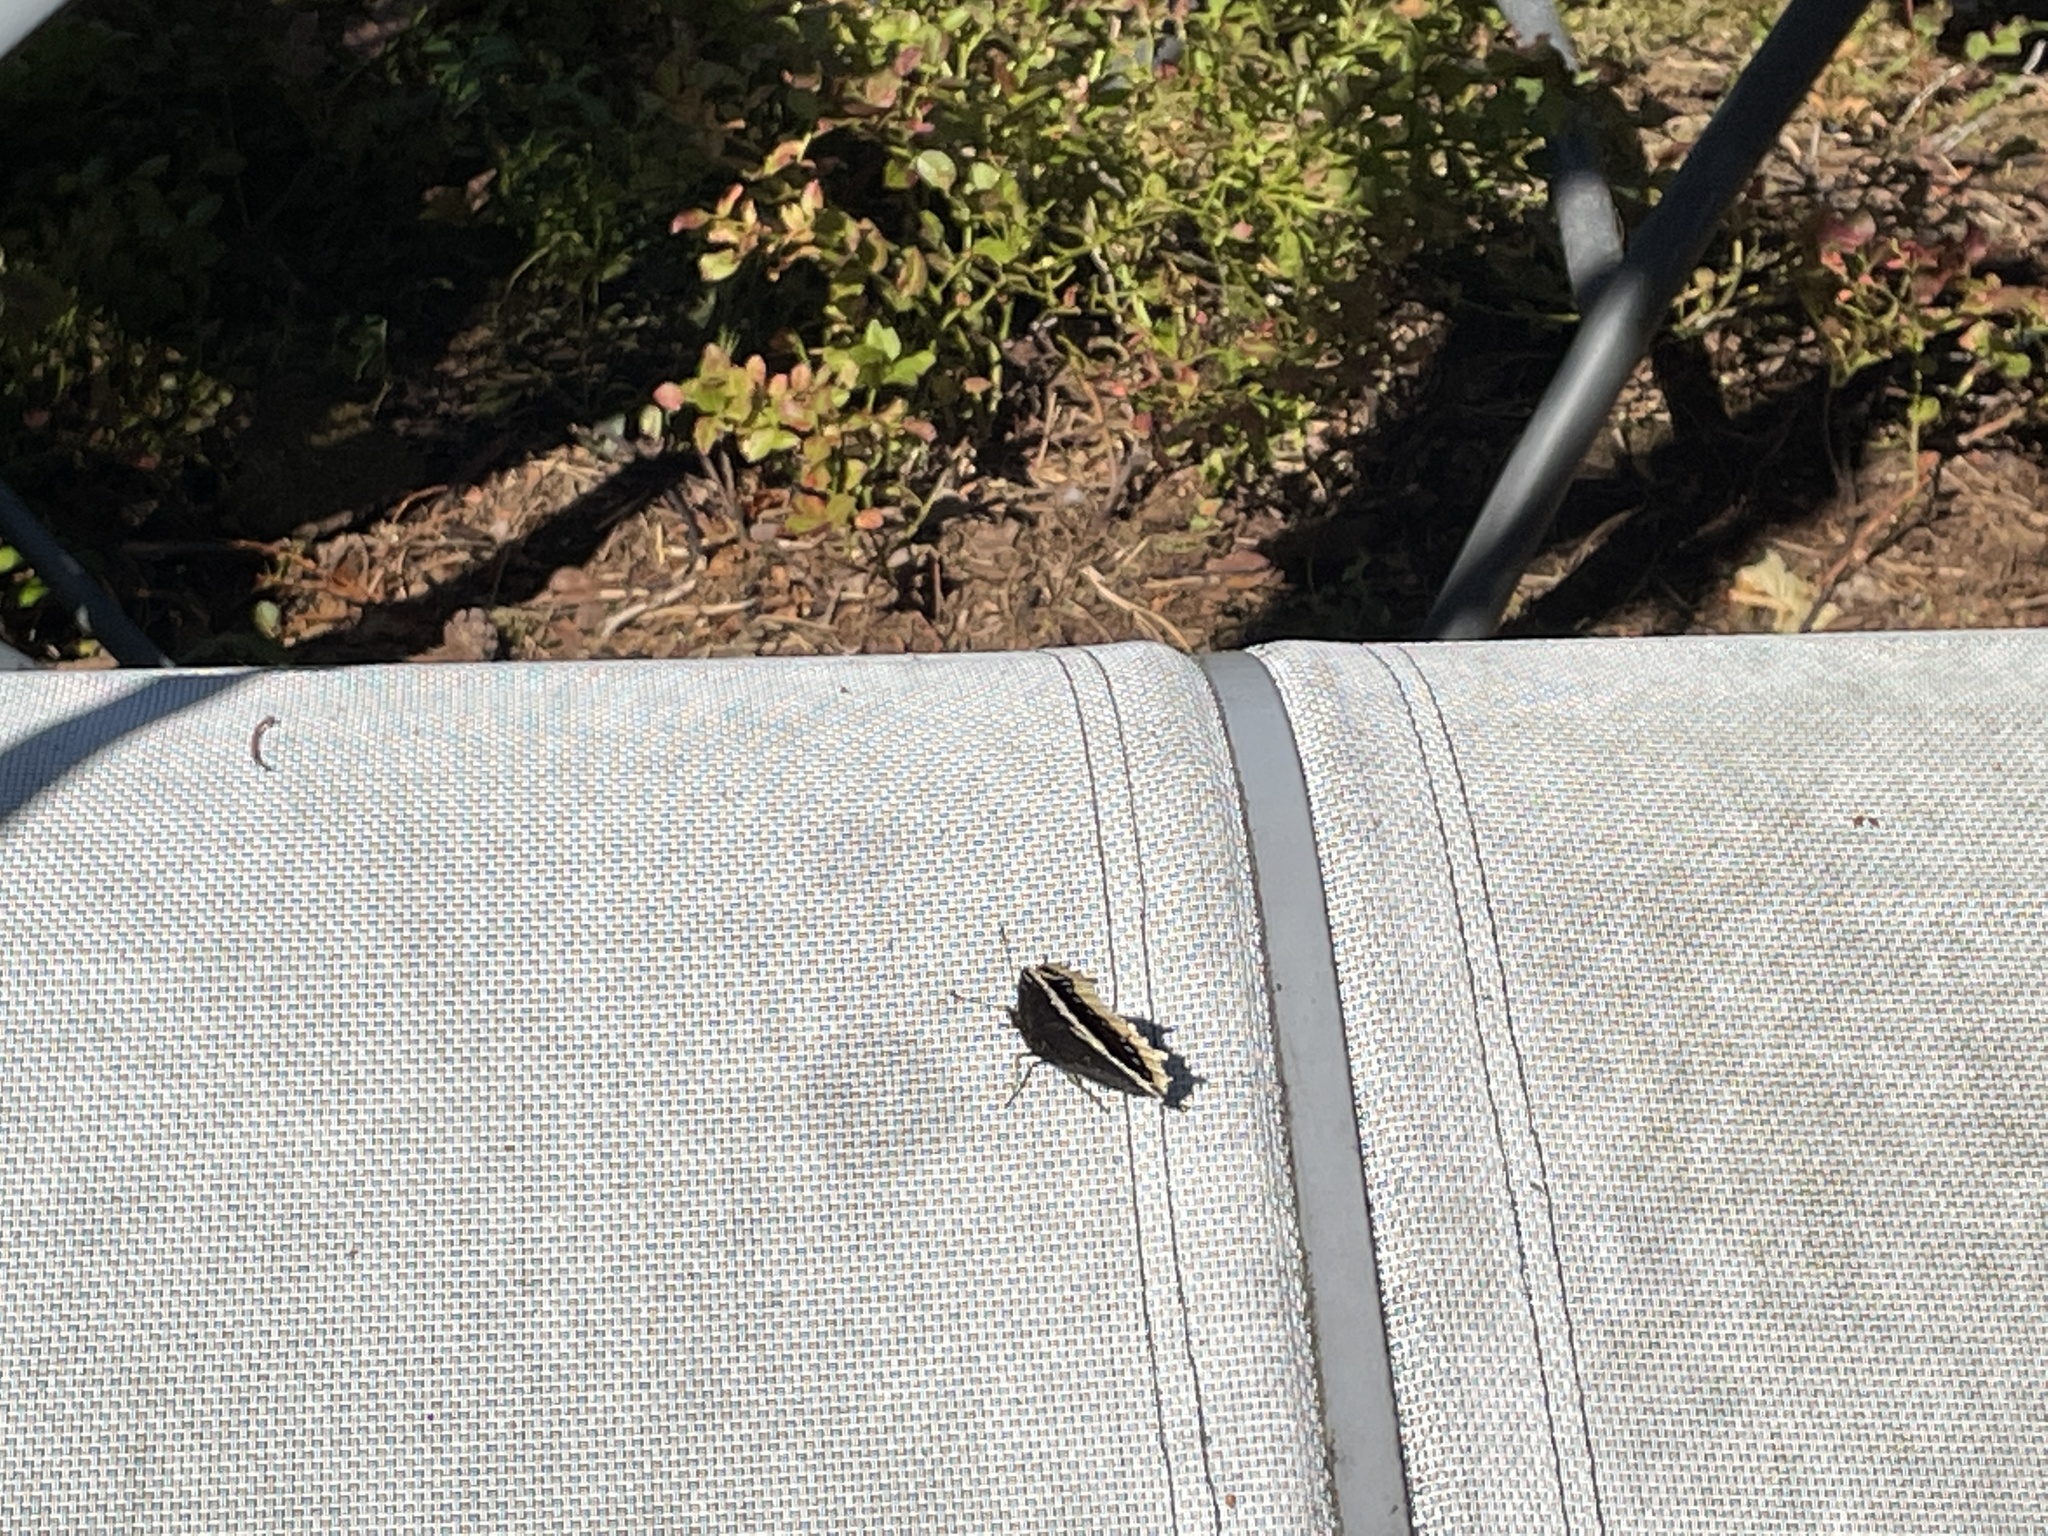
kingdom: Animalia
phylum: Arthropoda
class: Insecta
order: Lepidoptera
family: Nymphalidae
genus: Nymphalis
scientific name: Nymphalis antiopa
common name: Camberwell beauty
